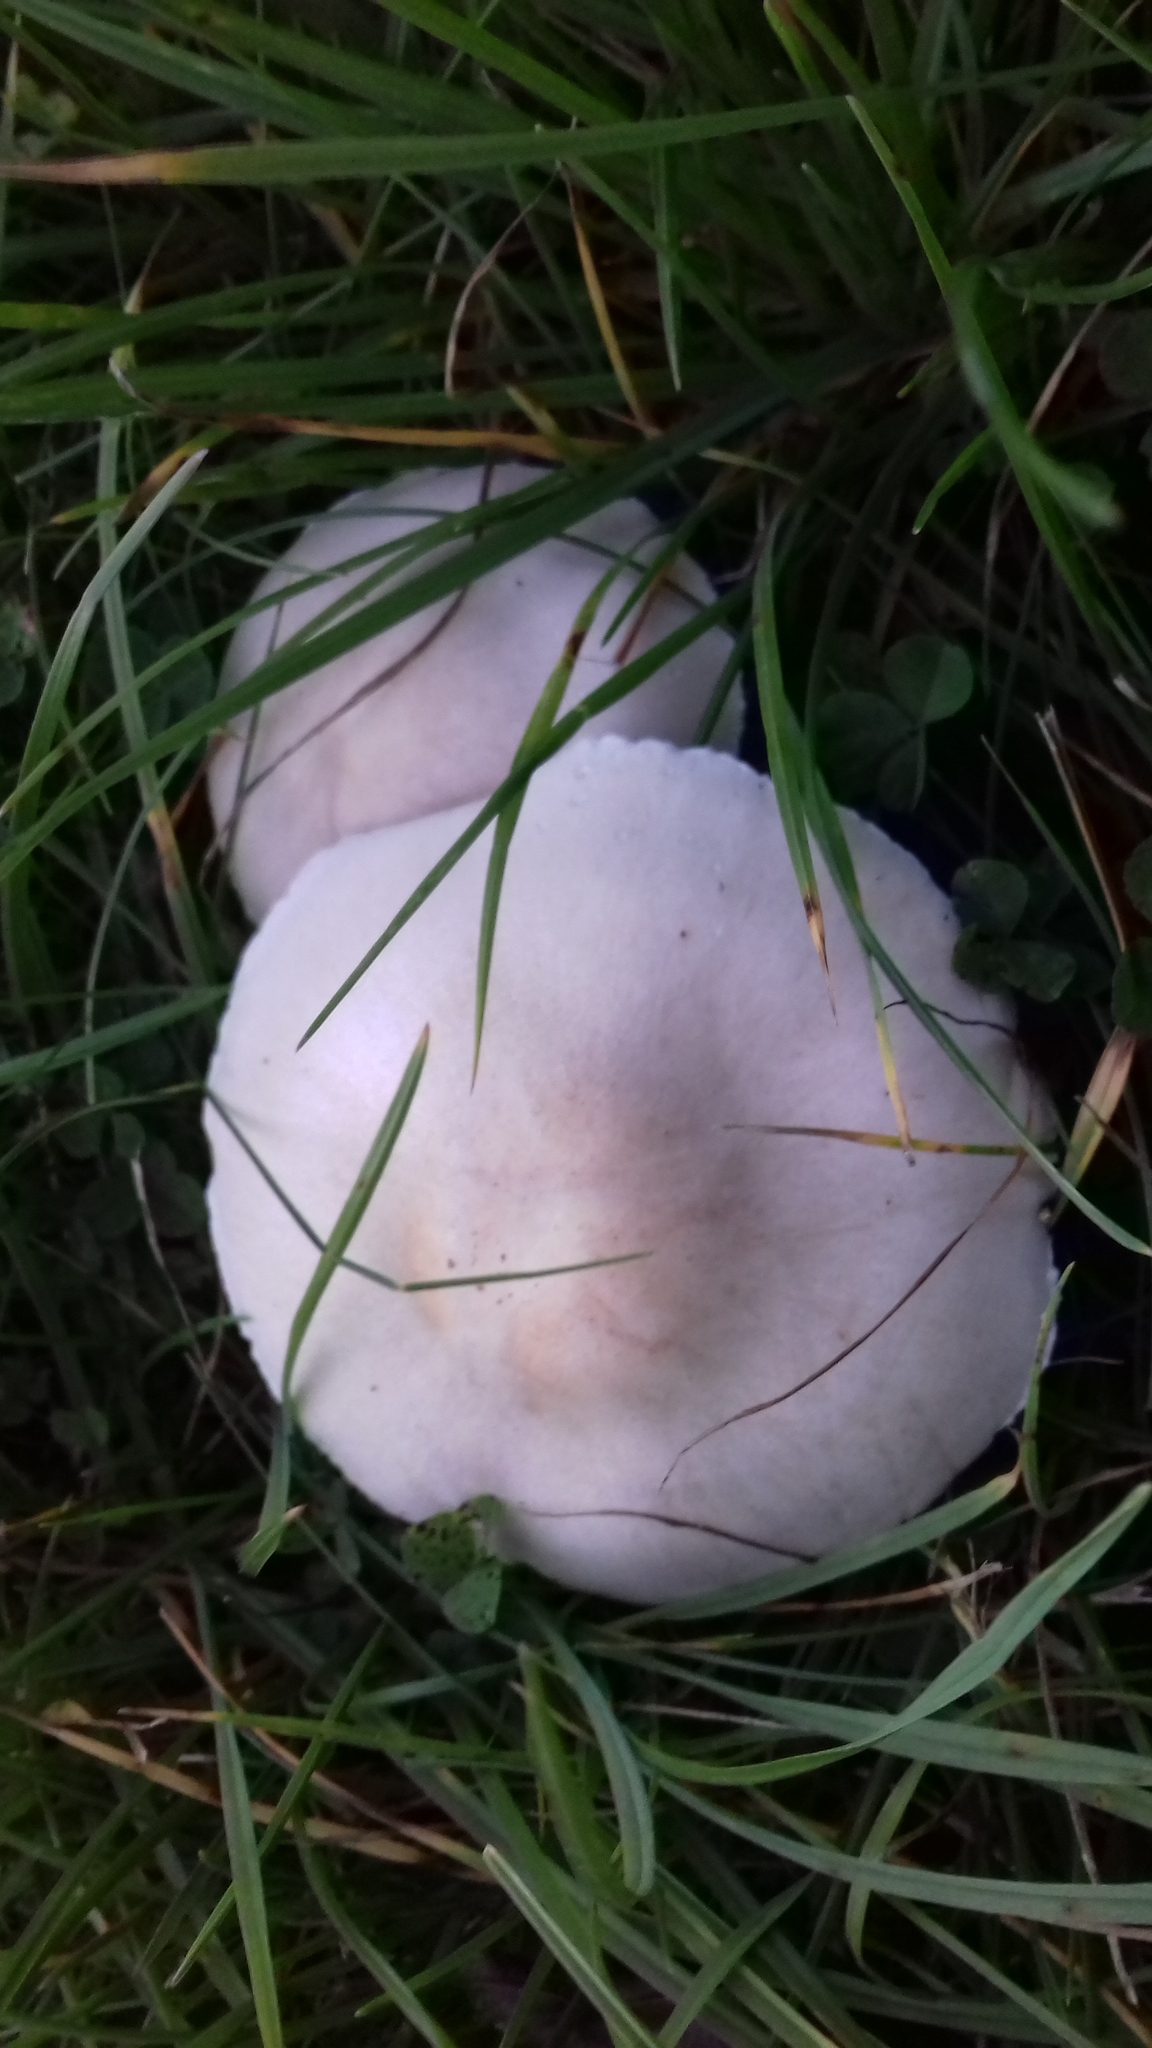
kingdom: Fungi
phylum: Basidiomycota
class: Agaricomycetes
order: Agaricales
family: Agaricaceae
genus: Leucoagaricus
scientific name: Leucoagaricus leucothites
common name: White dapperling
